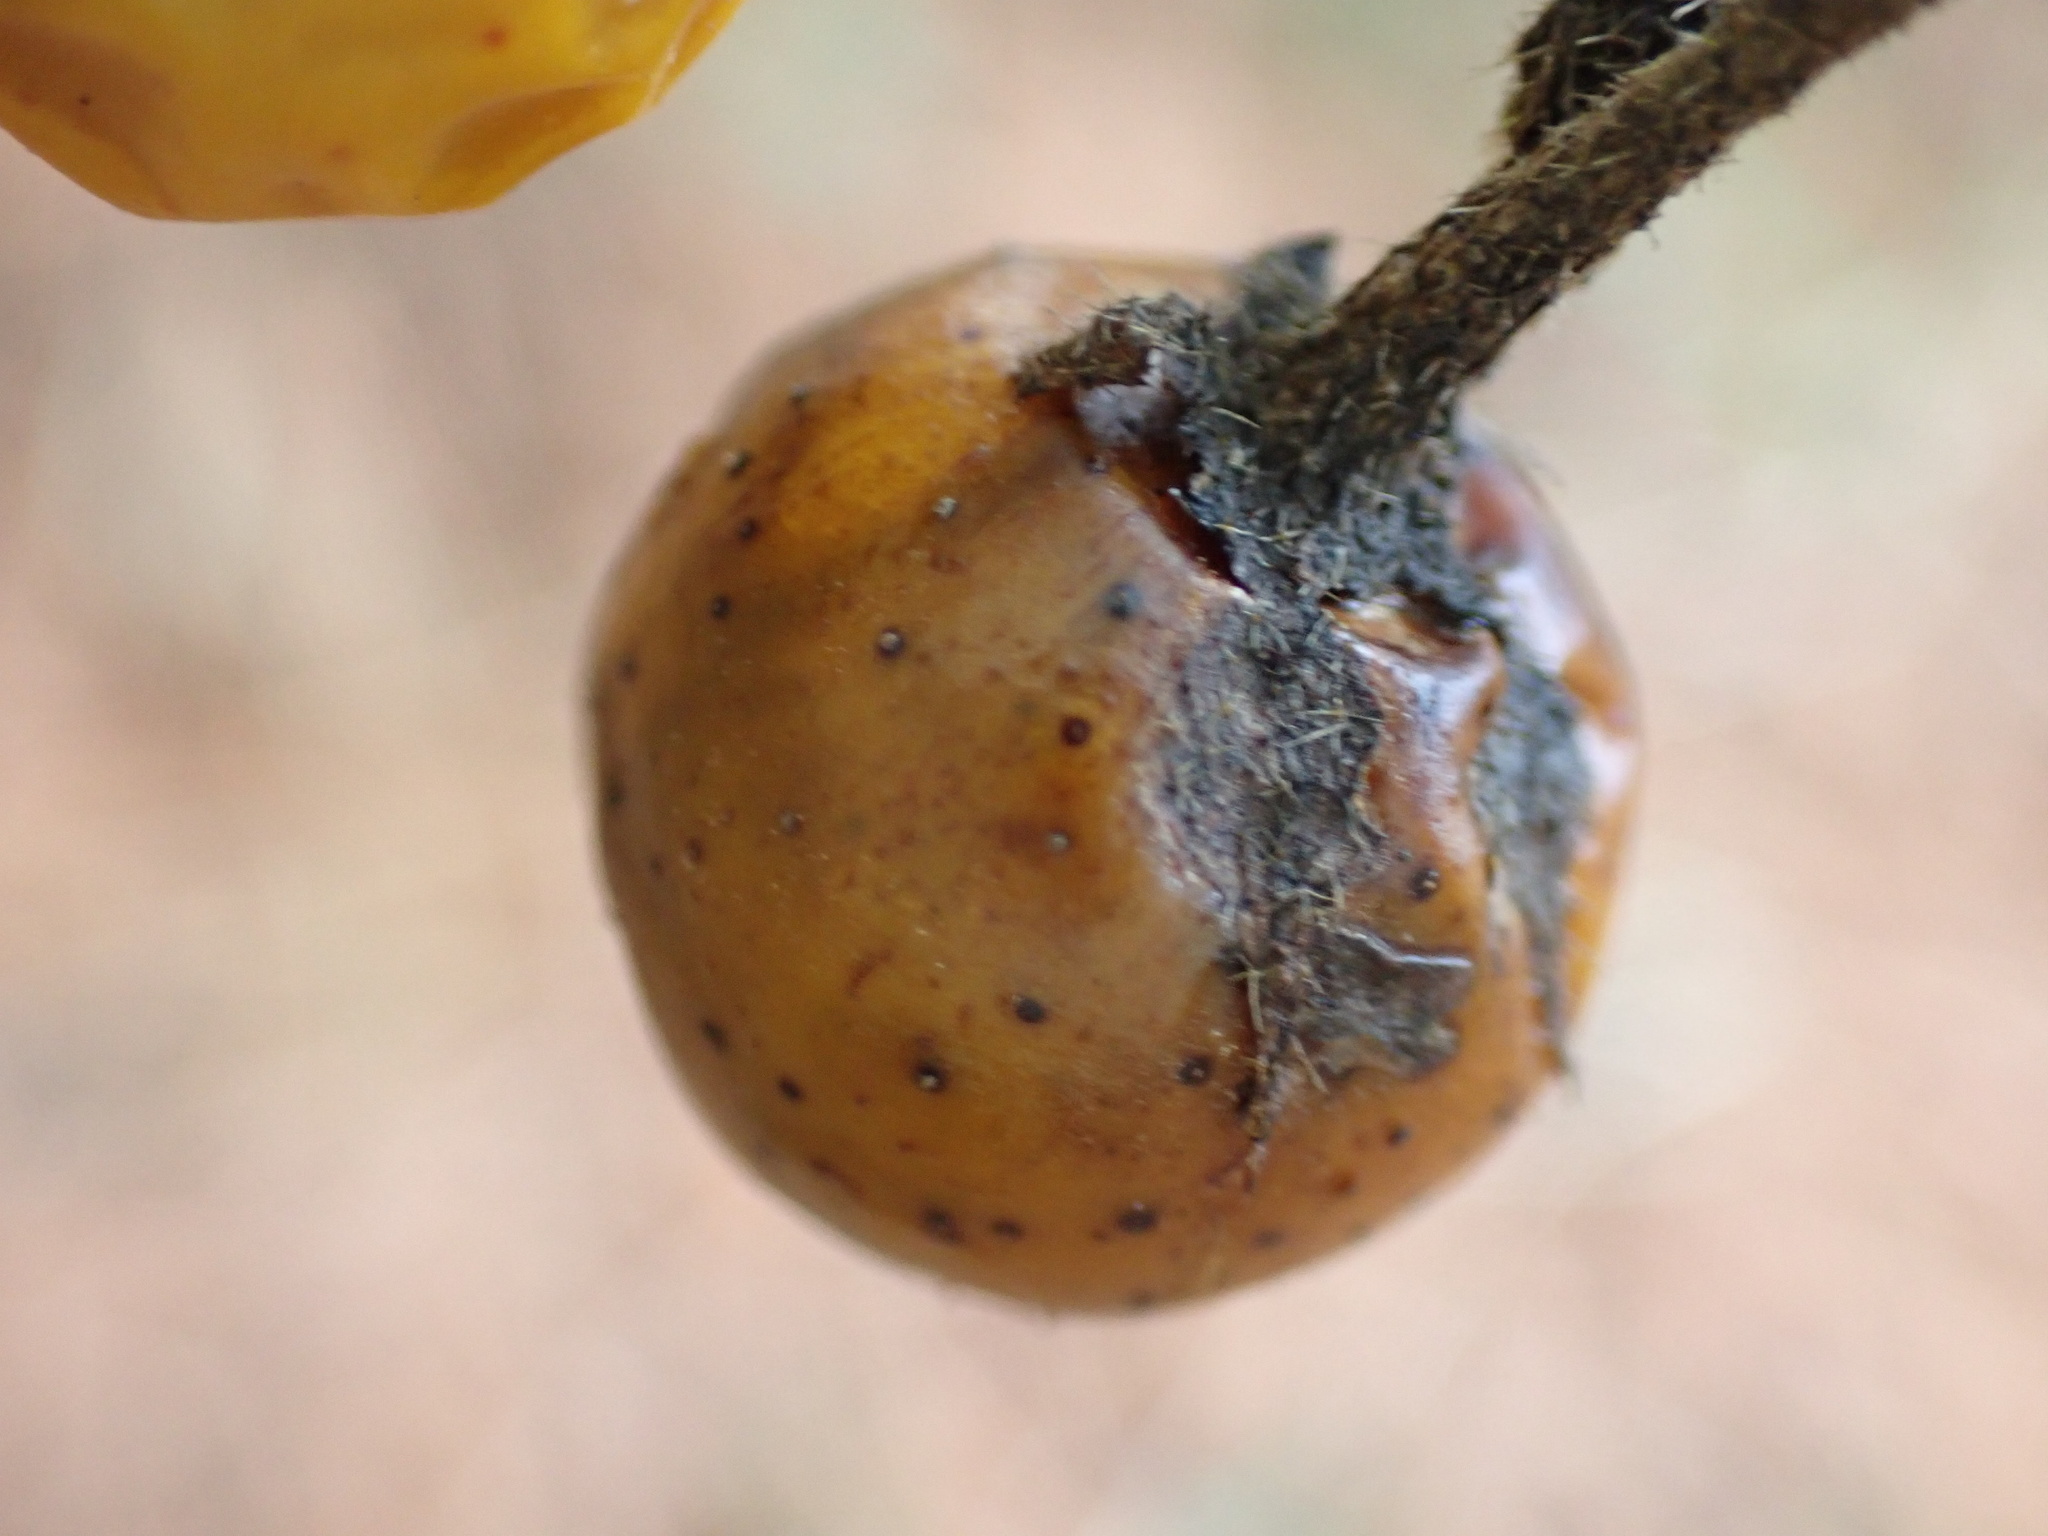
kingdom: Plantae
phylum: Tracheophyta
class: Magnoliopsida
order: Solanales
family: Solanaceae
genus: Solanum
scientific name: Solanum carolinense
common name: Horse-nettle
